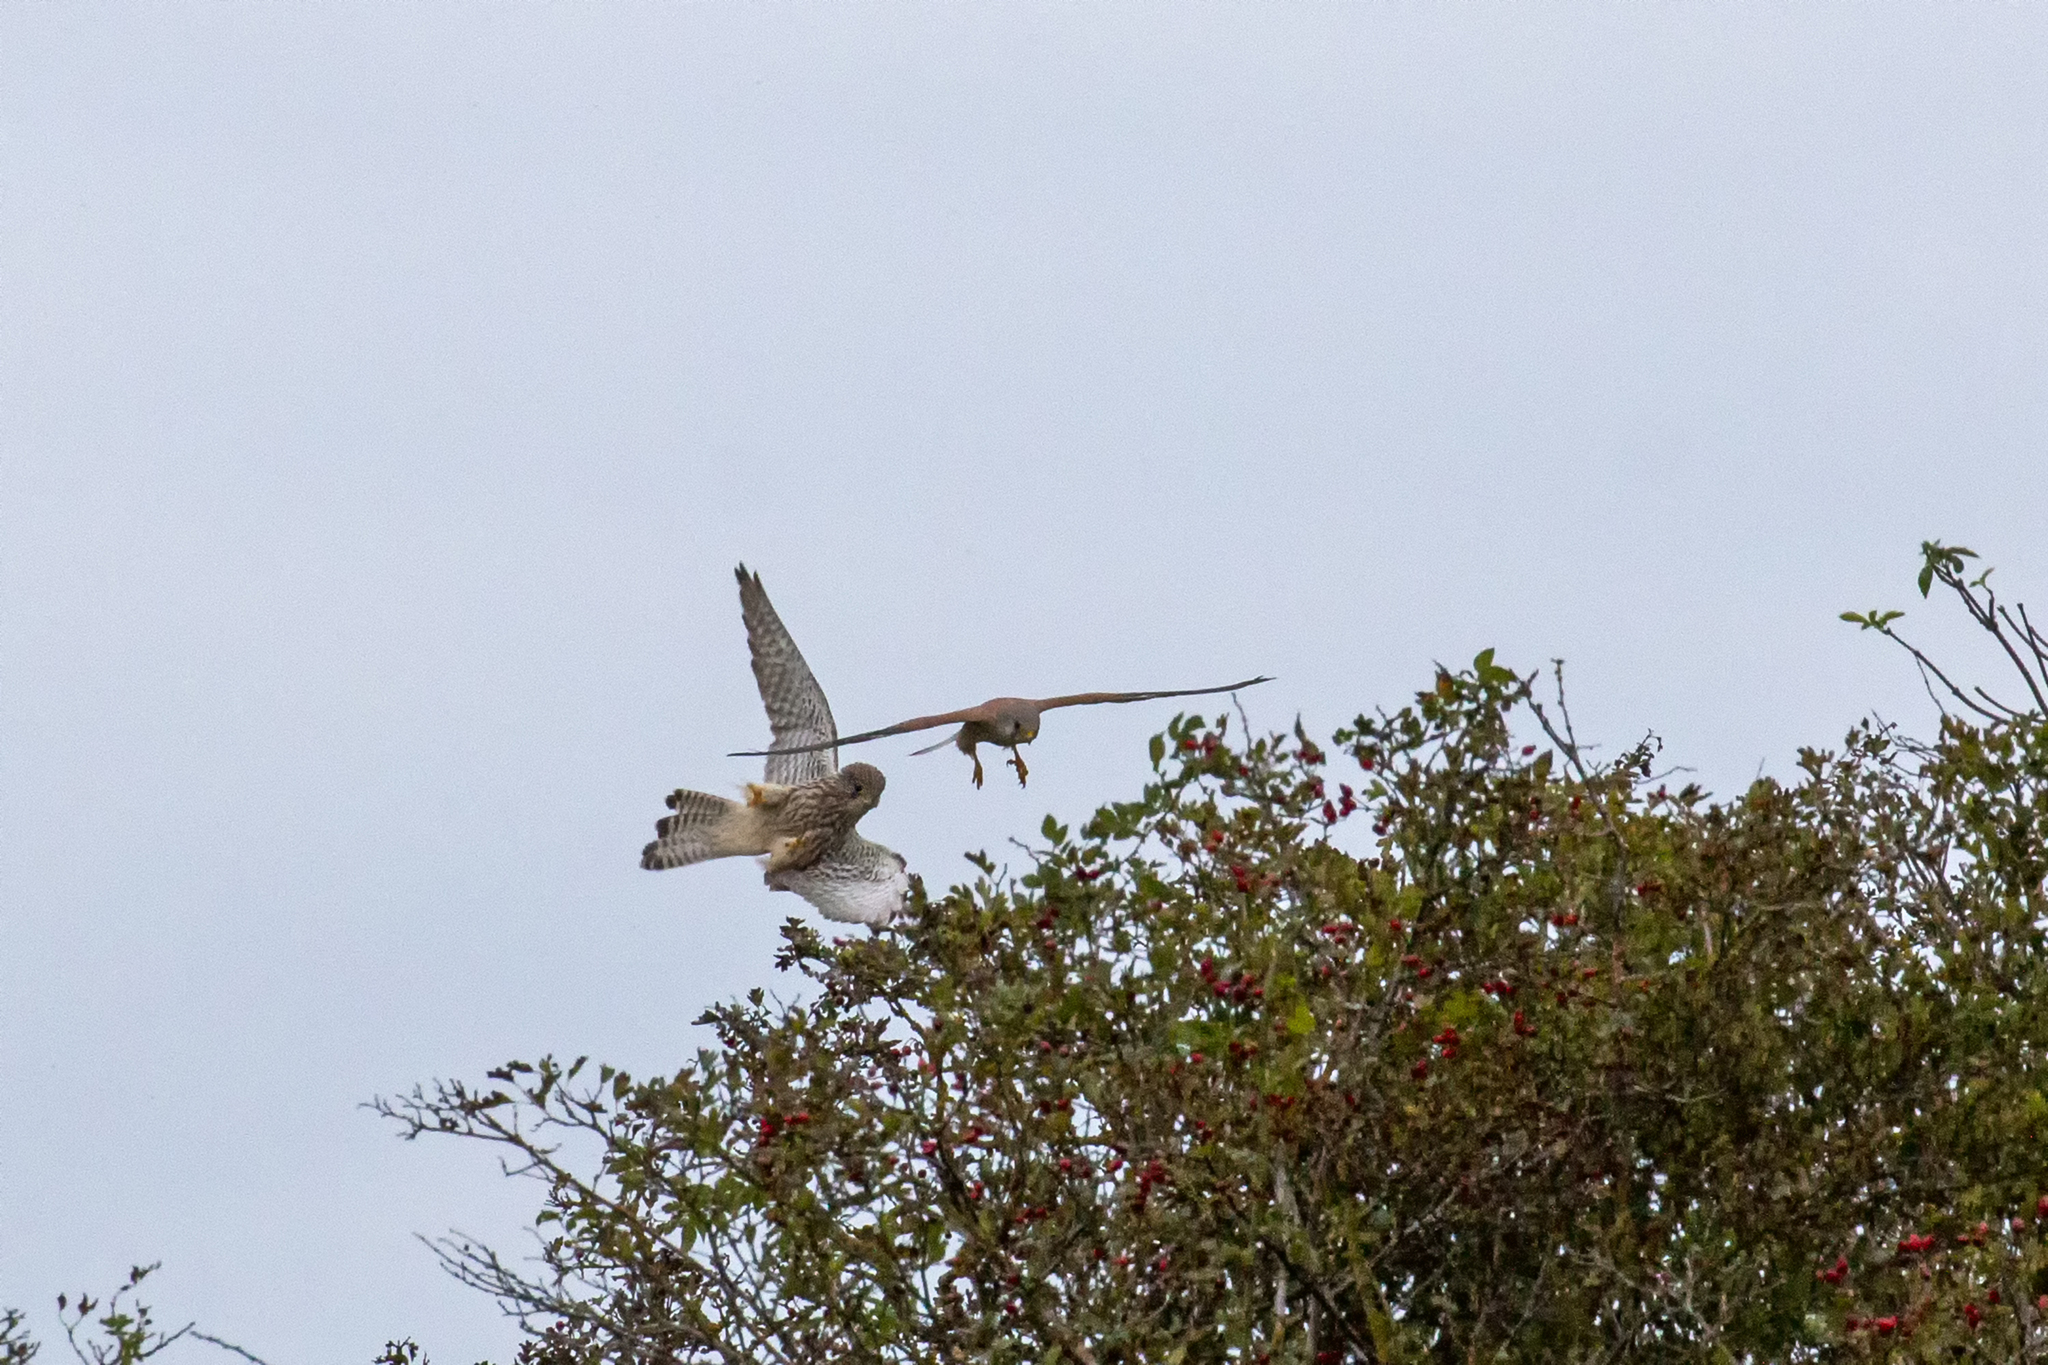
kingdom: Animalia
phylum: Chordata
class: Aves
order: Falconiformes
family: Falconidae
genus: Falco
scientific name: Falco tinnunculus
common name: Common kestrel
